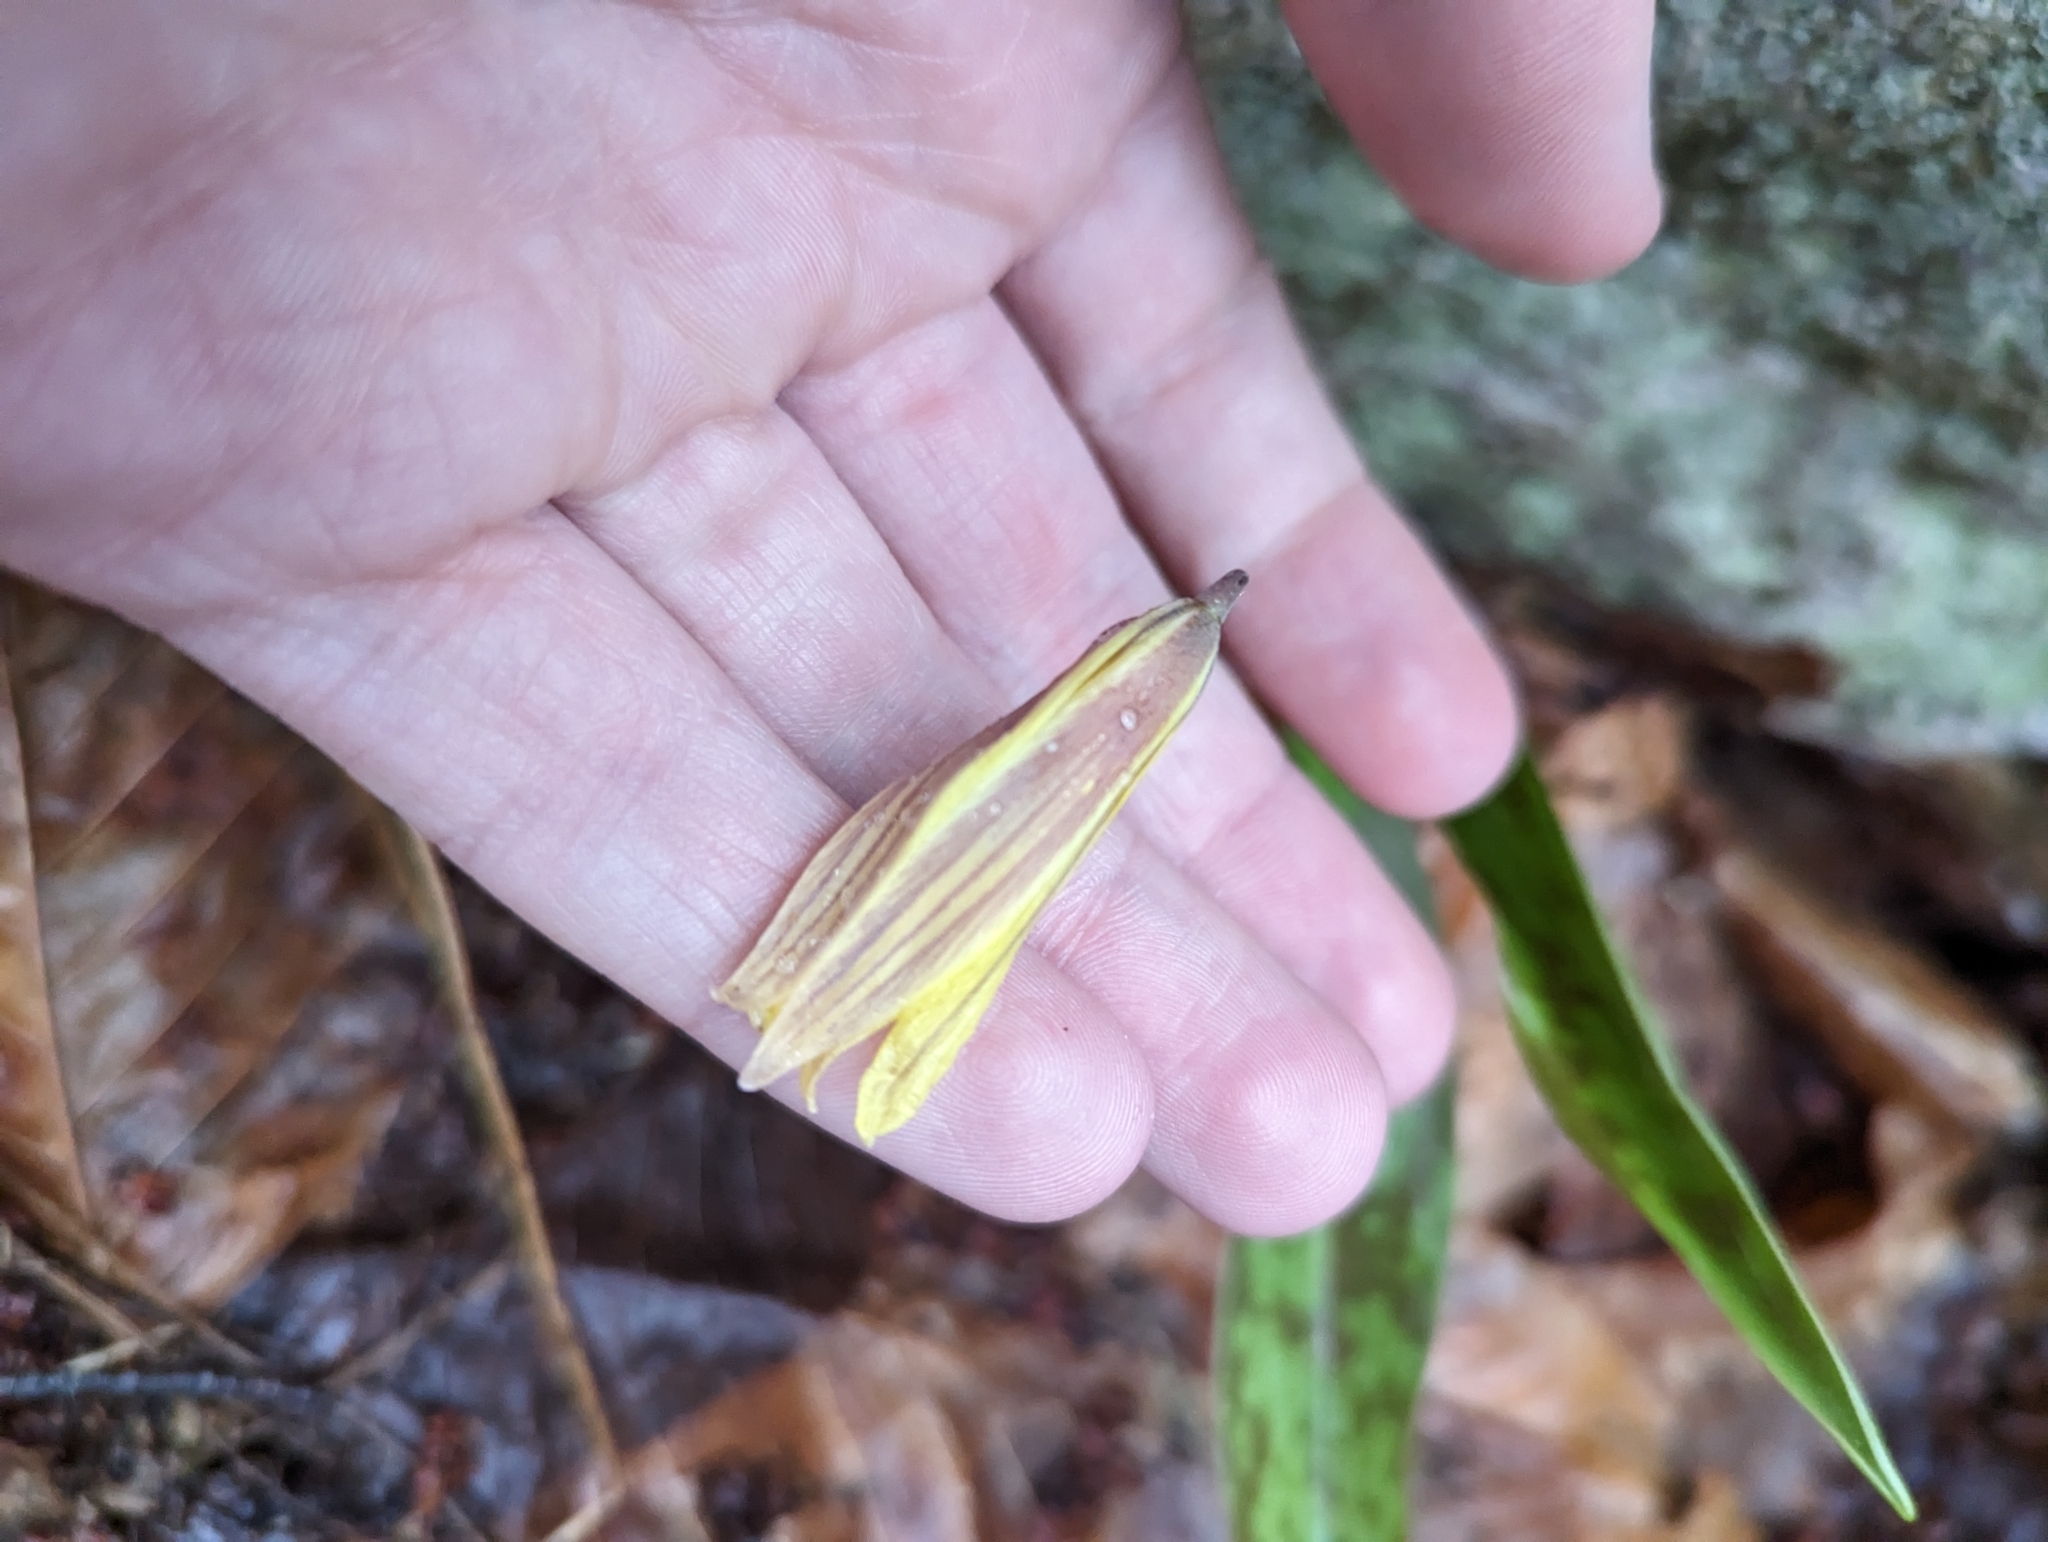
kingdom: Plantae
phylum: Tracheophyta
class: Liliopsida
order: Liliales
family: Liliaceae
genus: Erythronium
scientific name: Erythronium americanum
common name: Yellow adder's-tongue
